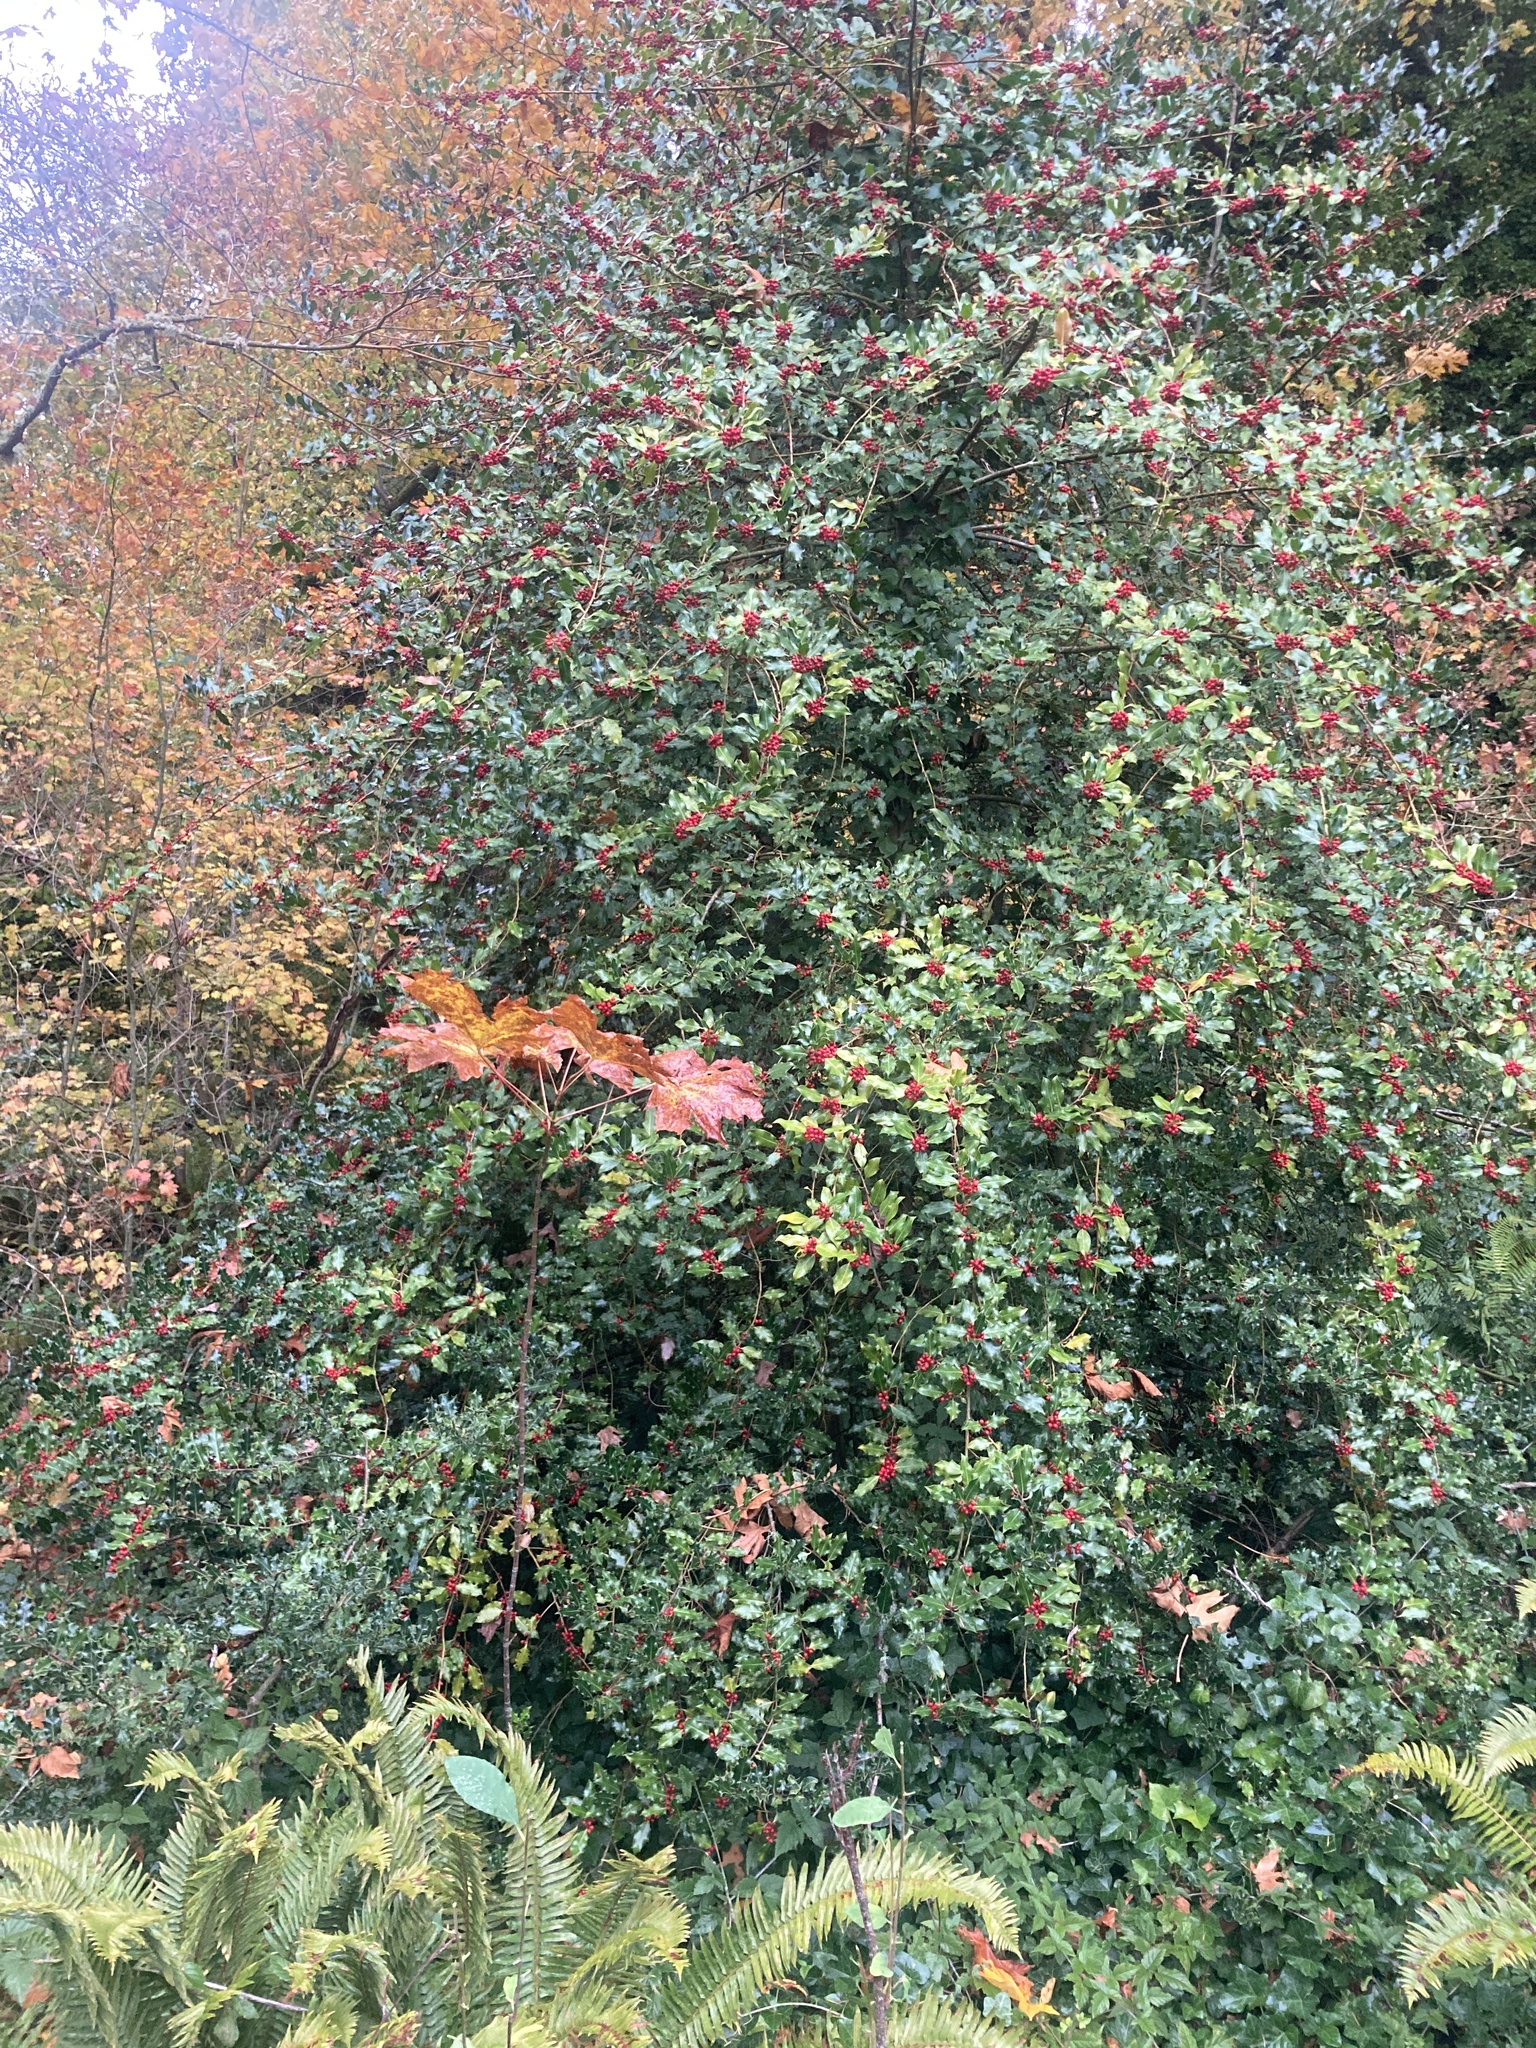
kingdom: Plantae
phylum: Tracheophyta
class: Magnoliopsida
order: Aquifoliales
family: Aquifoliaceae
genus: Ilex
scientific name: Ilex aquifolium
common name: English holly
